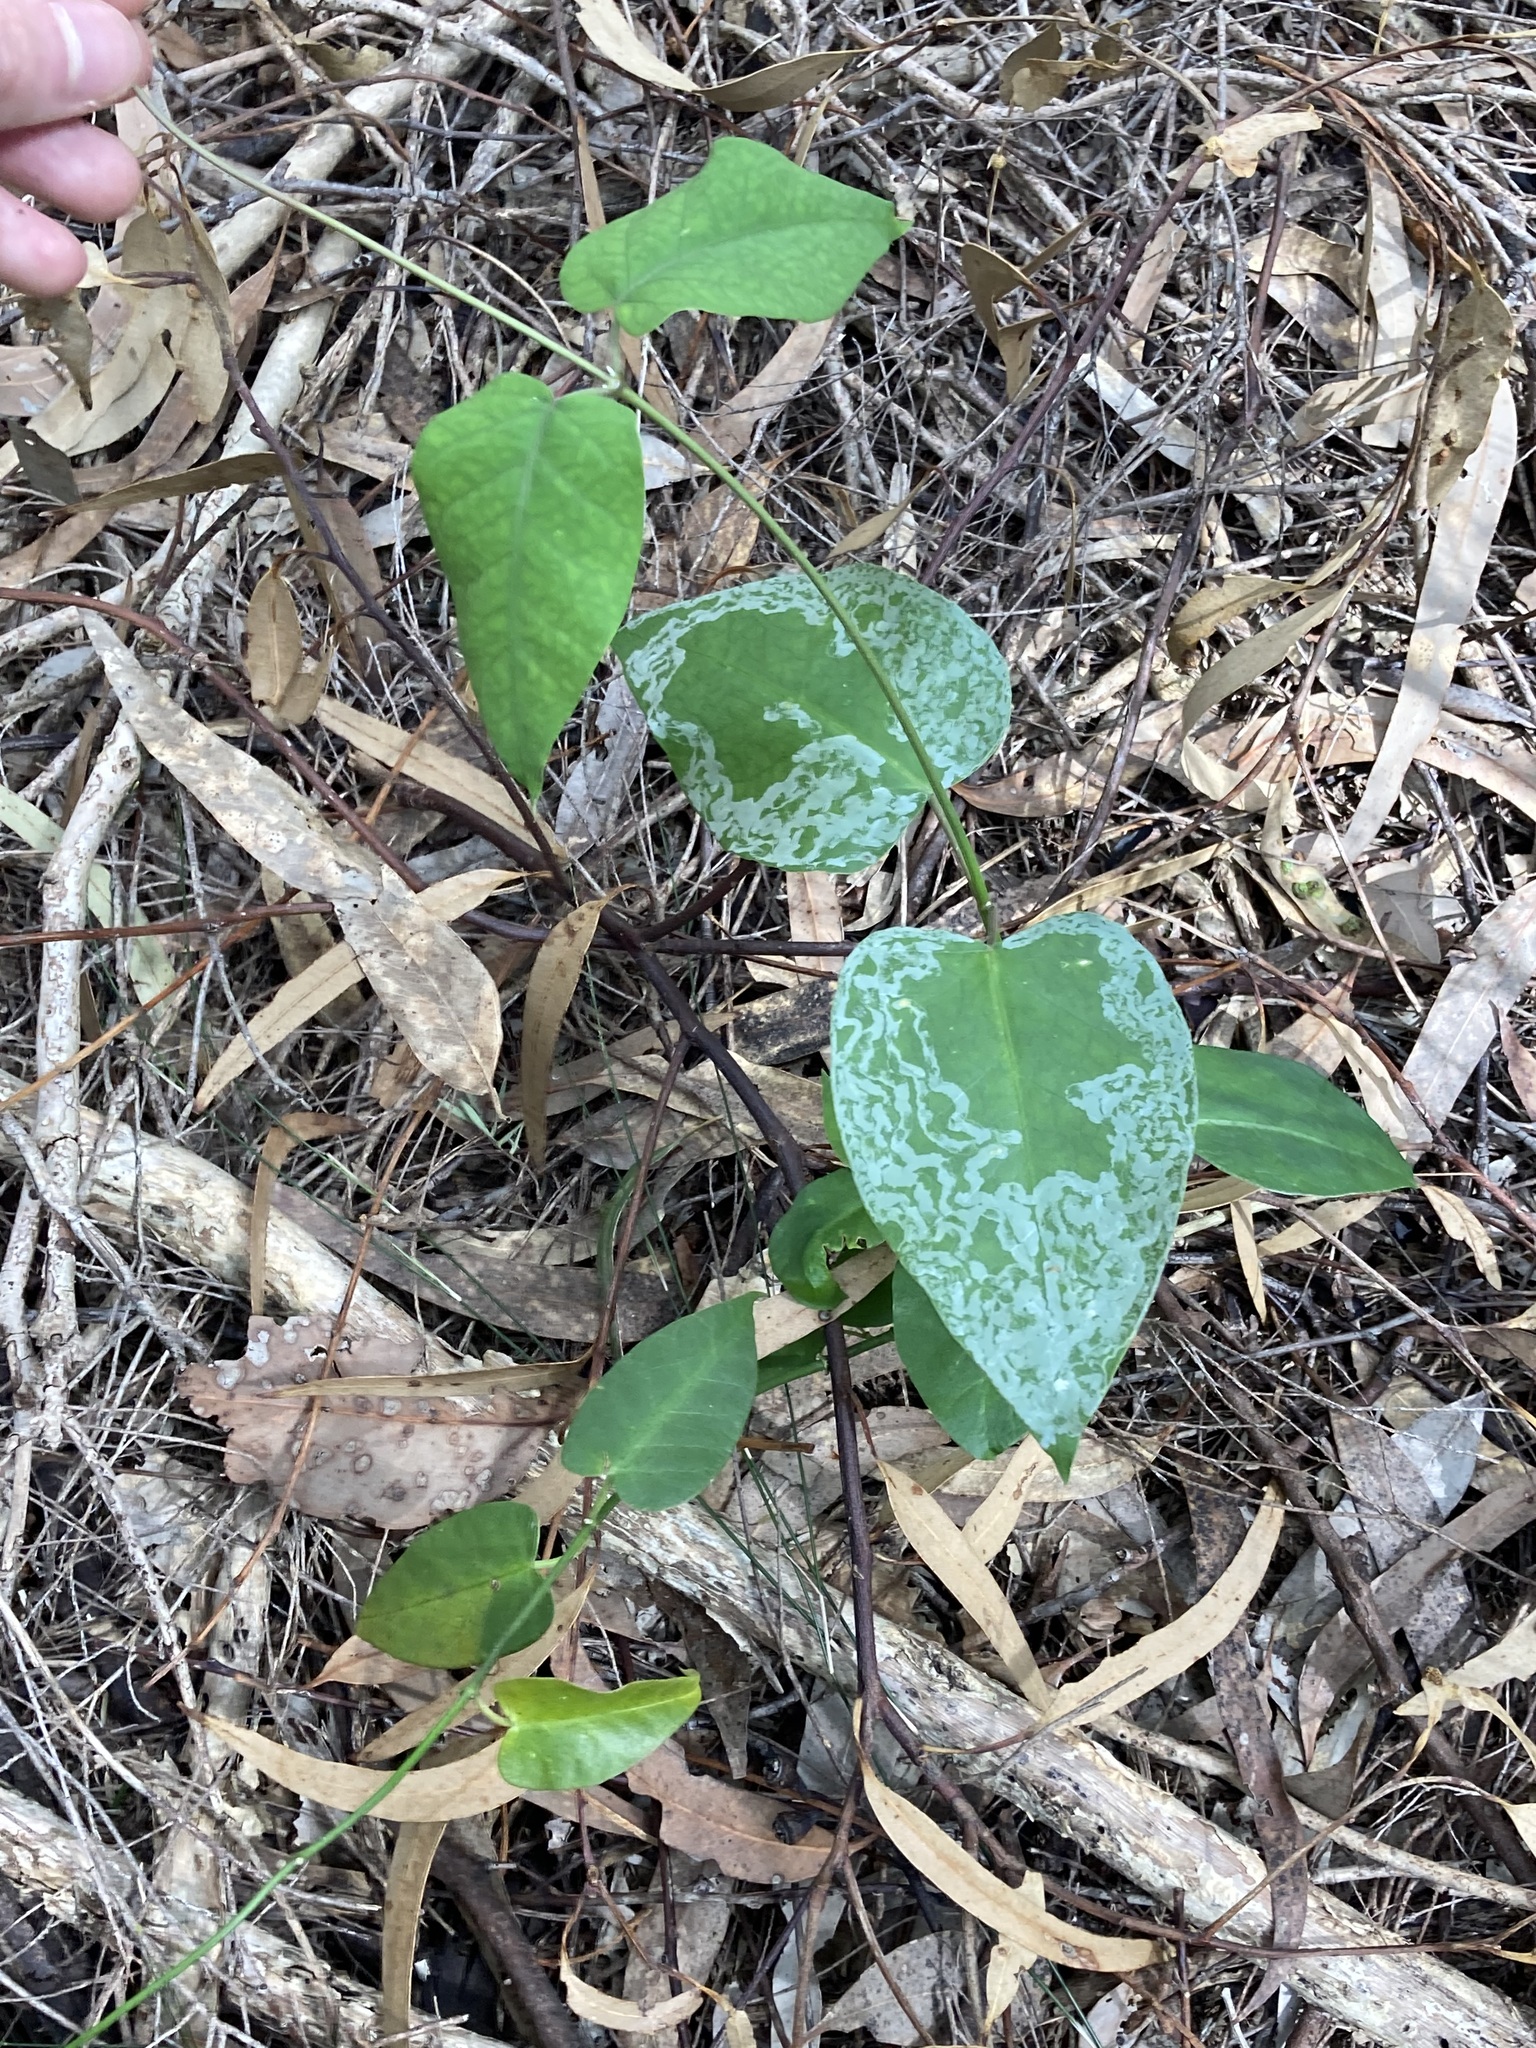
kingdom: Plantae
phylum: Tracheophyta
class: Magnoliopsida
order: Gentianales
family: Apocynaceae
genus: Araujia
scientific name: Araujia sericifera
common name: White bladderflower
